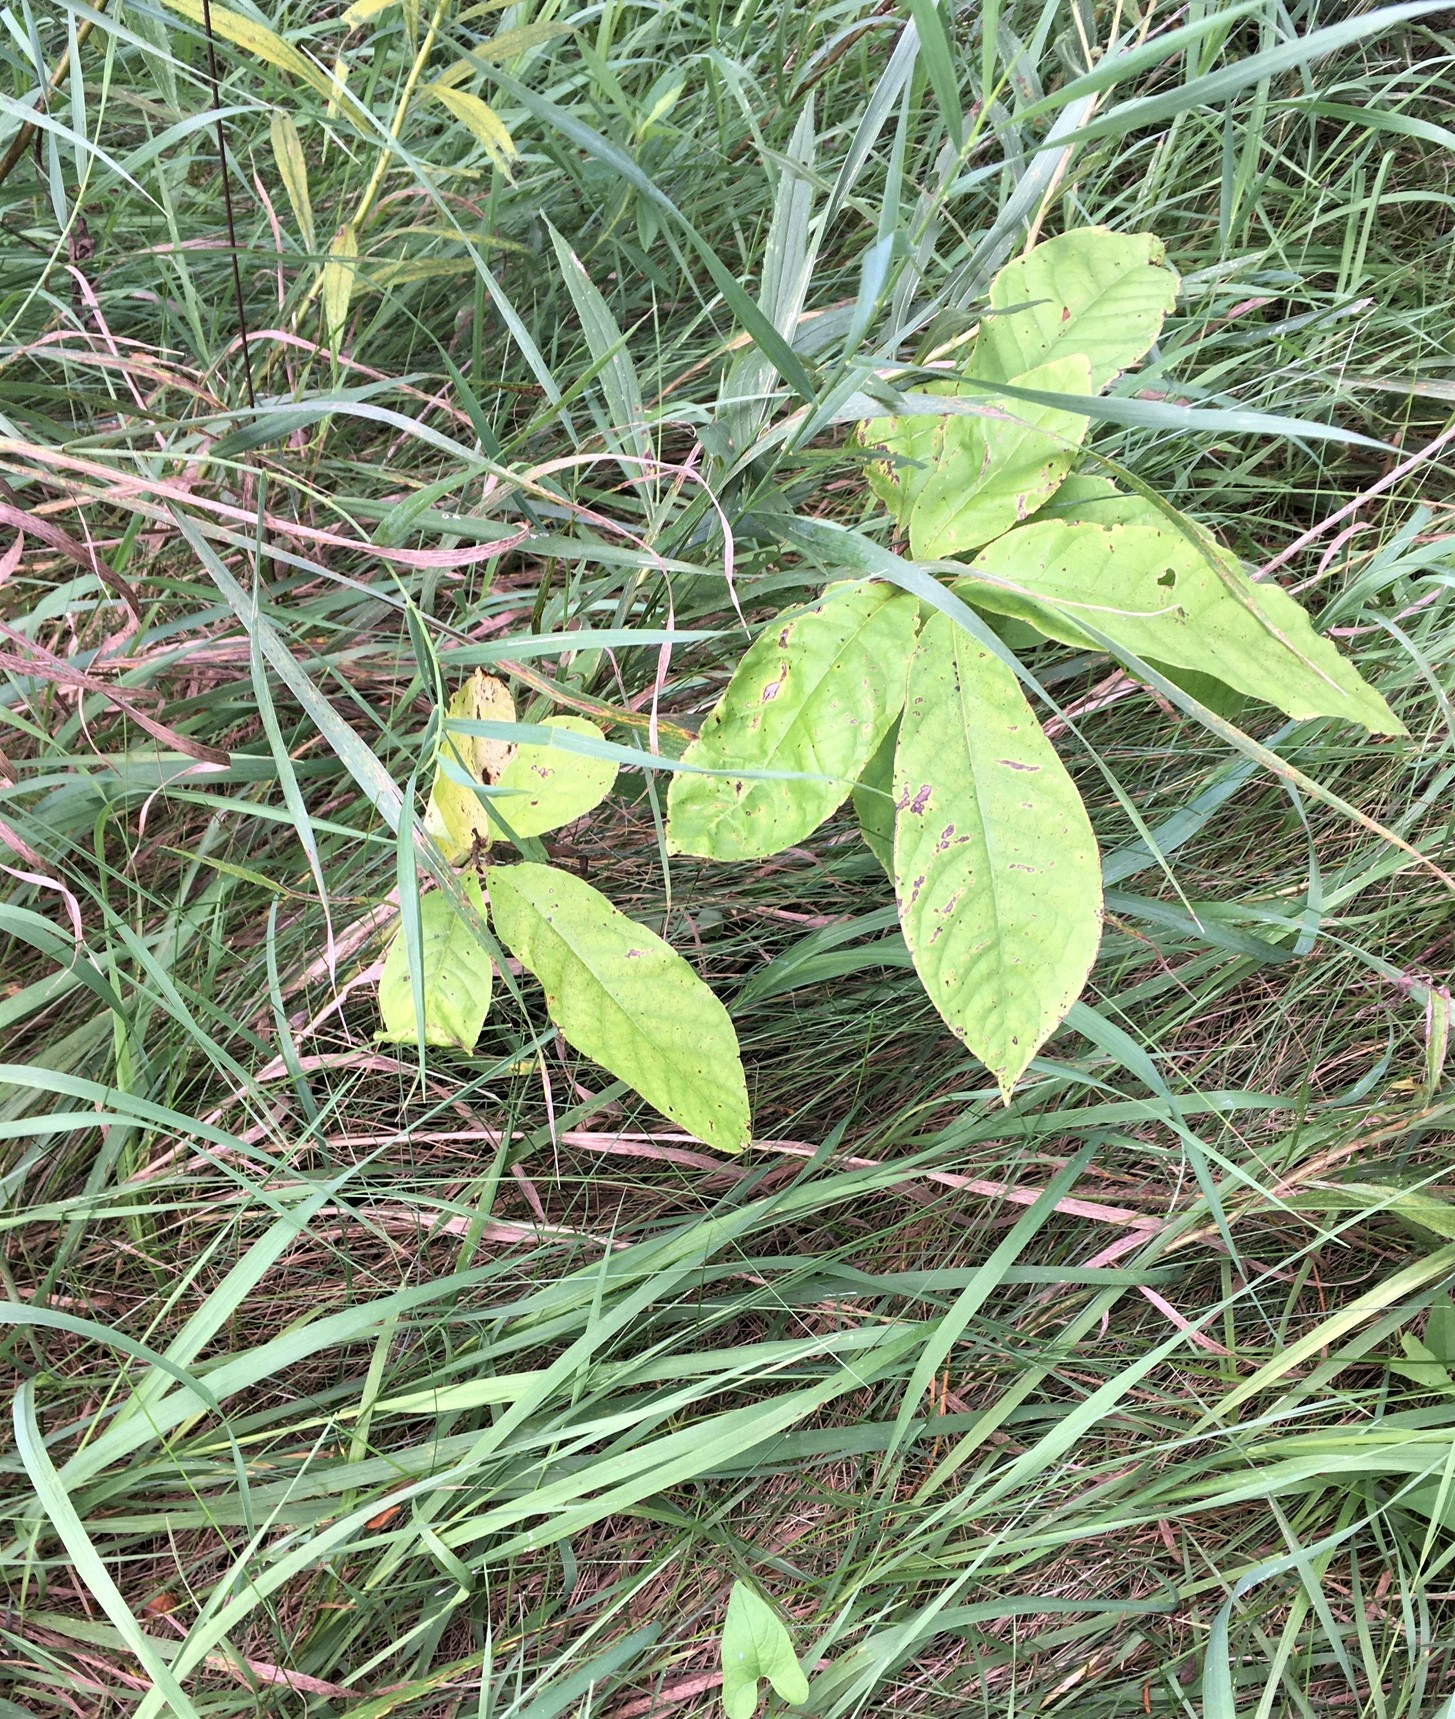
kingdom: Plantae
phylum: Tracheophyta
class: Magnoliopsida
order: Magnoliales
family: Annonaceae
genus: Asimina
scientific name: Asimina triloba
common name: Dog-banana
